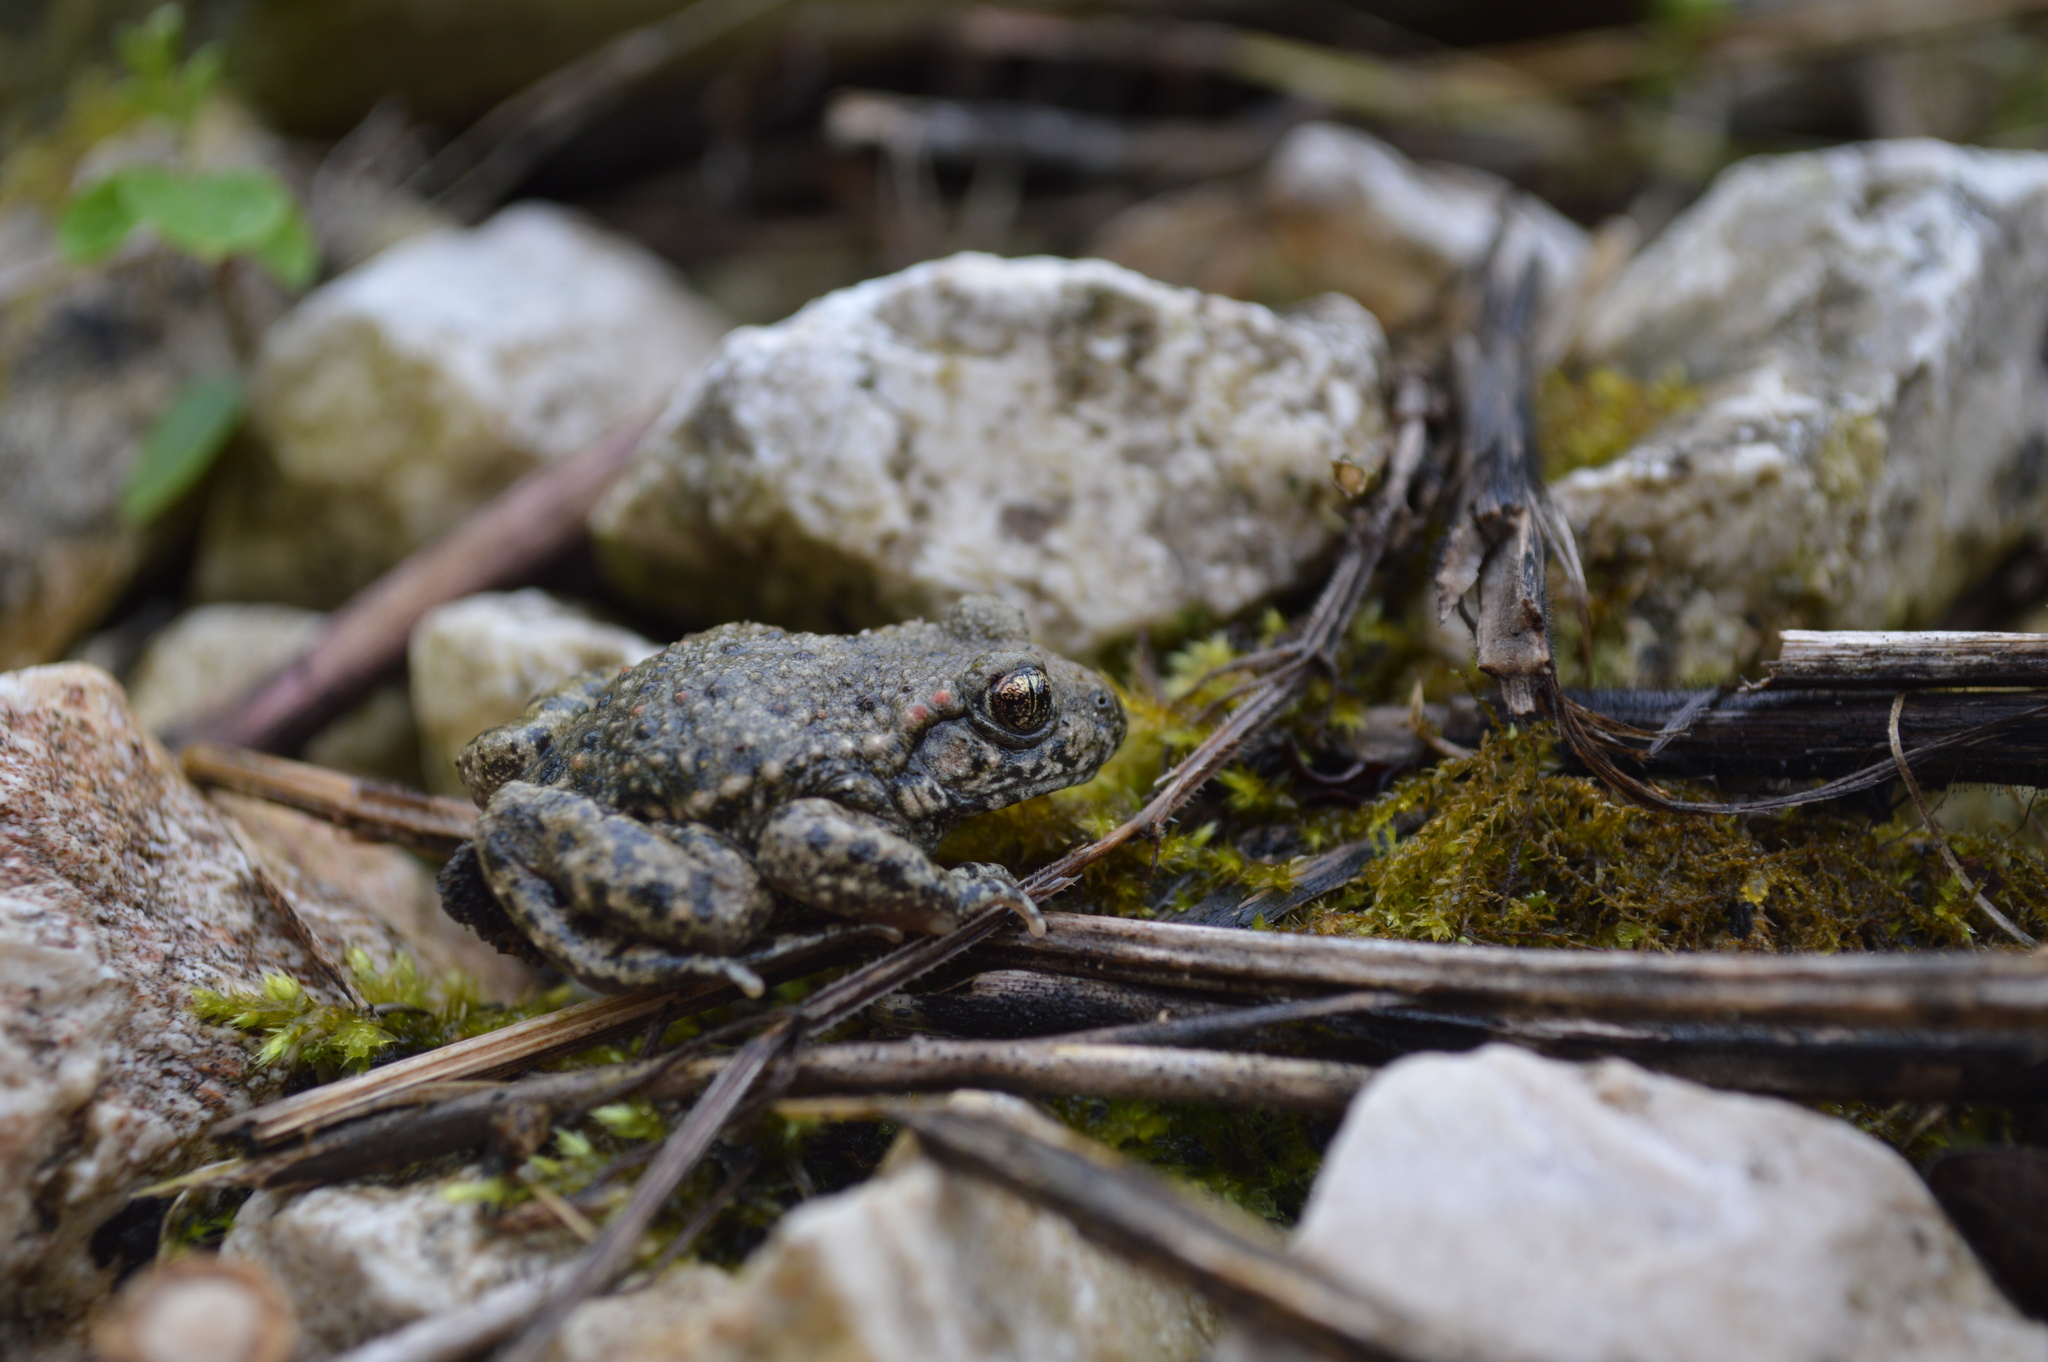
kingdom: Animalia
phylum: Chordata
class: Amphibia
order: Anura
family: Alytidae
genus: Alytes
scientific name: Alytes obstetricans
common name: Midwife toad
